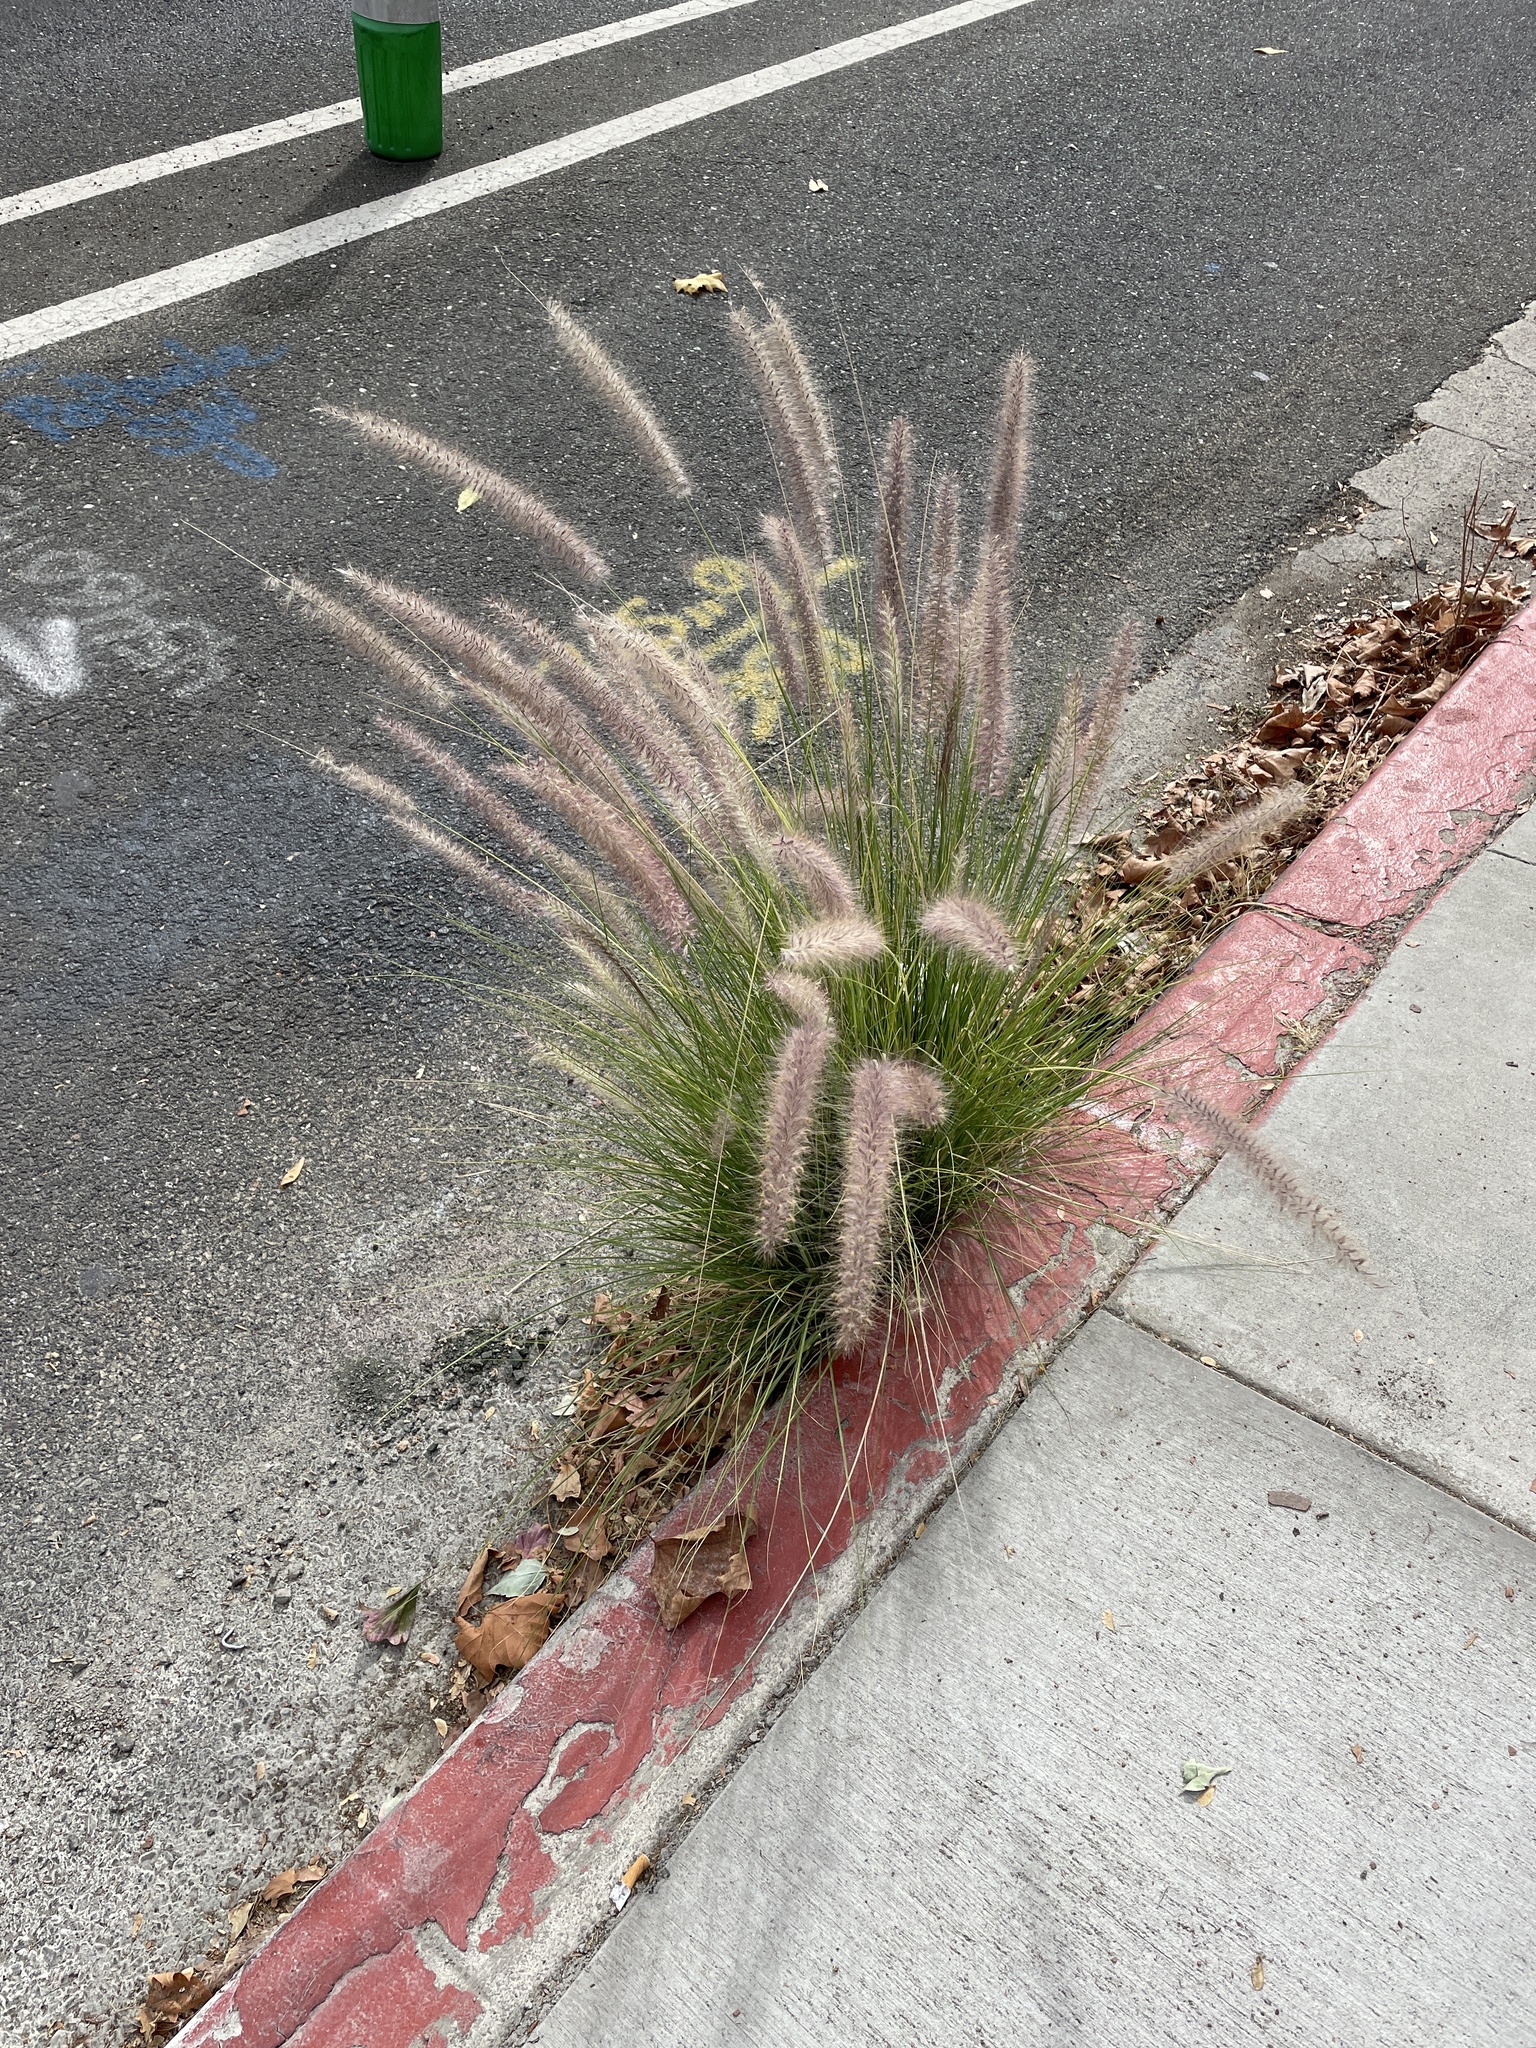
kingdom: Plantae
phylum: Tracheophyta
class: Liliopsida
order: Poales
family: Poaceae
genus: Cenchrus
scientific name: Cenchrus setaceus
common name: Crimson fountaingrass
